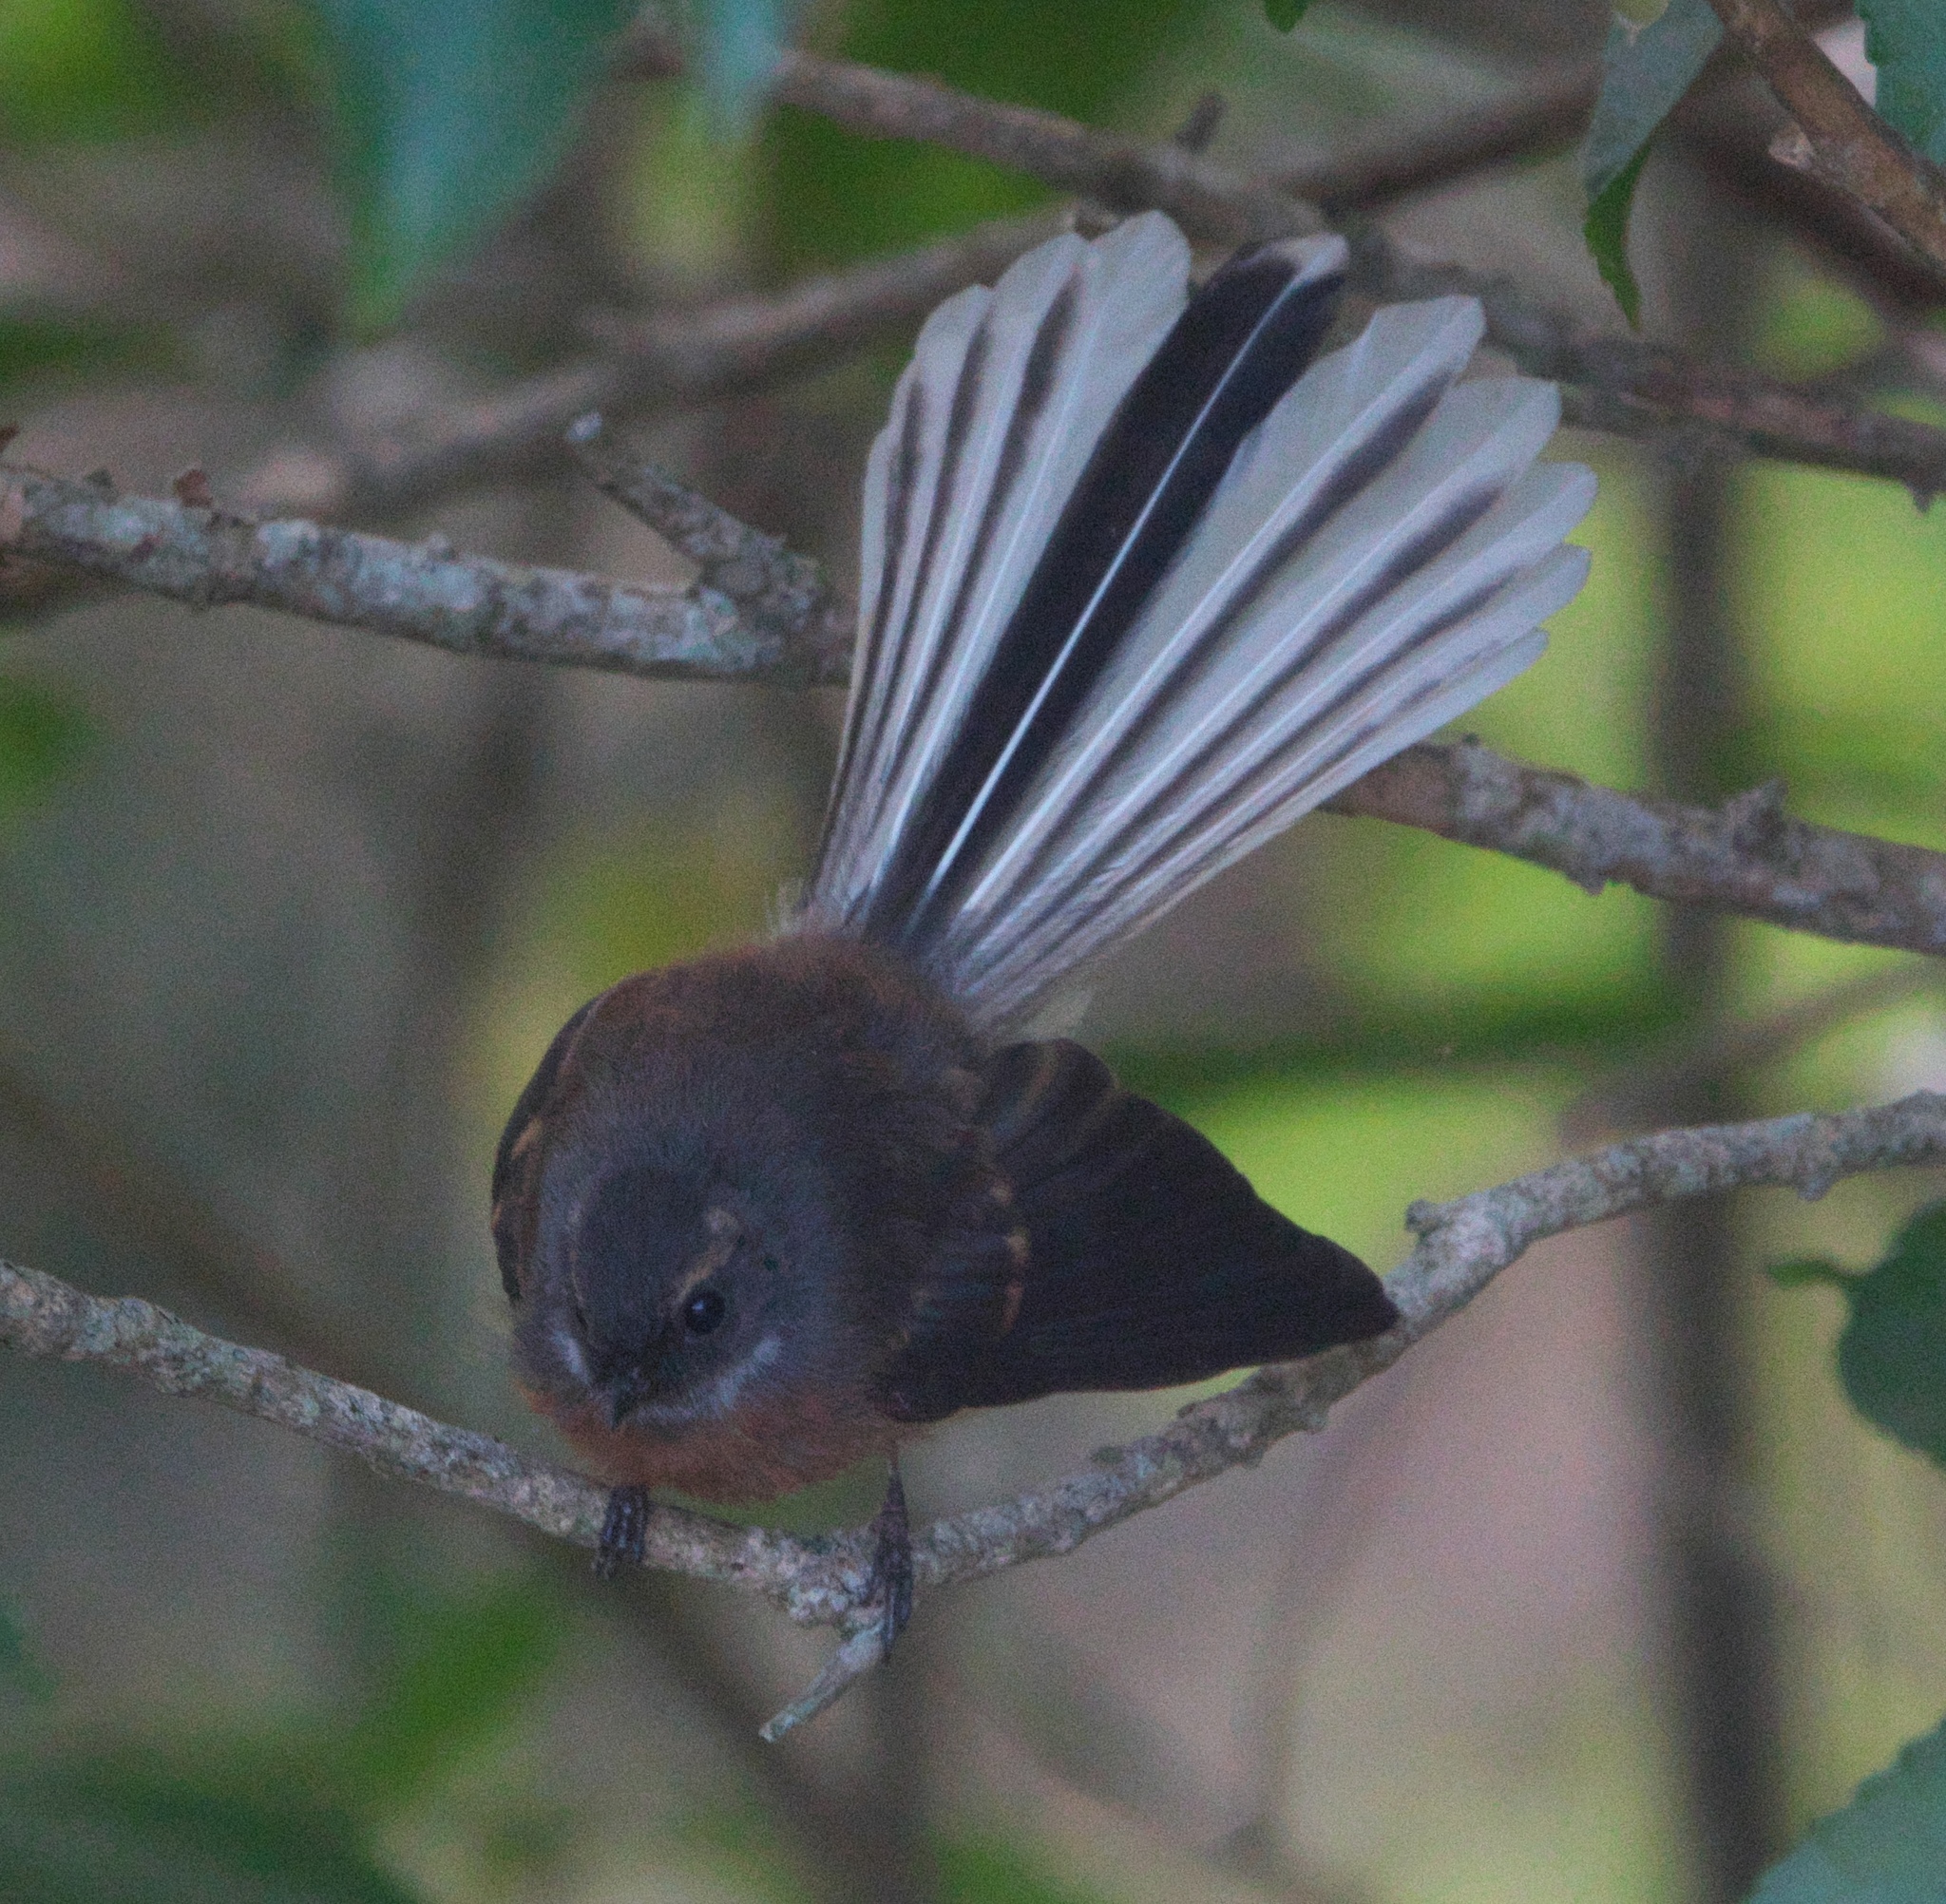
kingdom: Animalia
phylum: Chordata
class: Aves
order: Passeriformes
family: Rhipiduridae
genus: Rhipidura
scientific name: Rhipidura fuliginosa
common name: New zealand fantail
